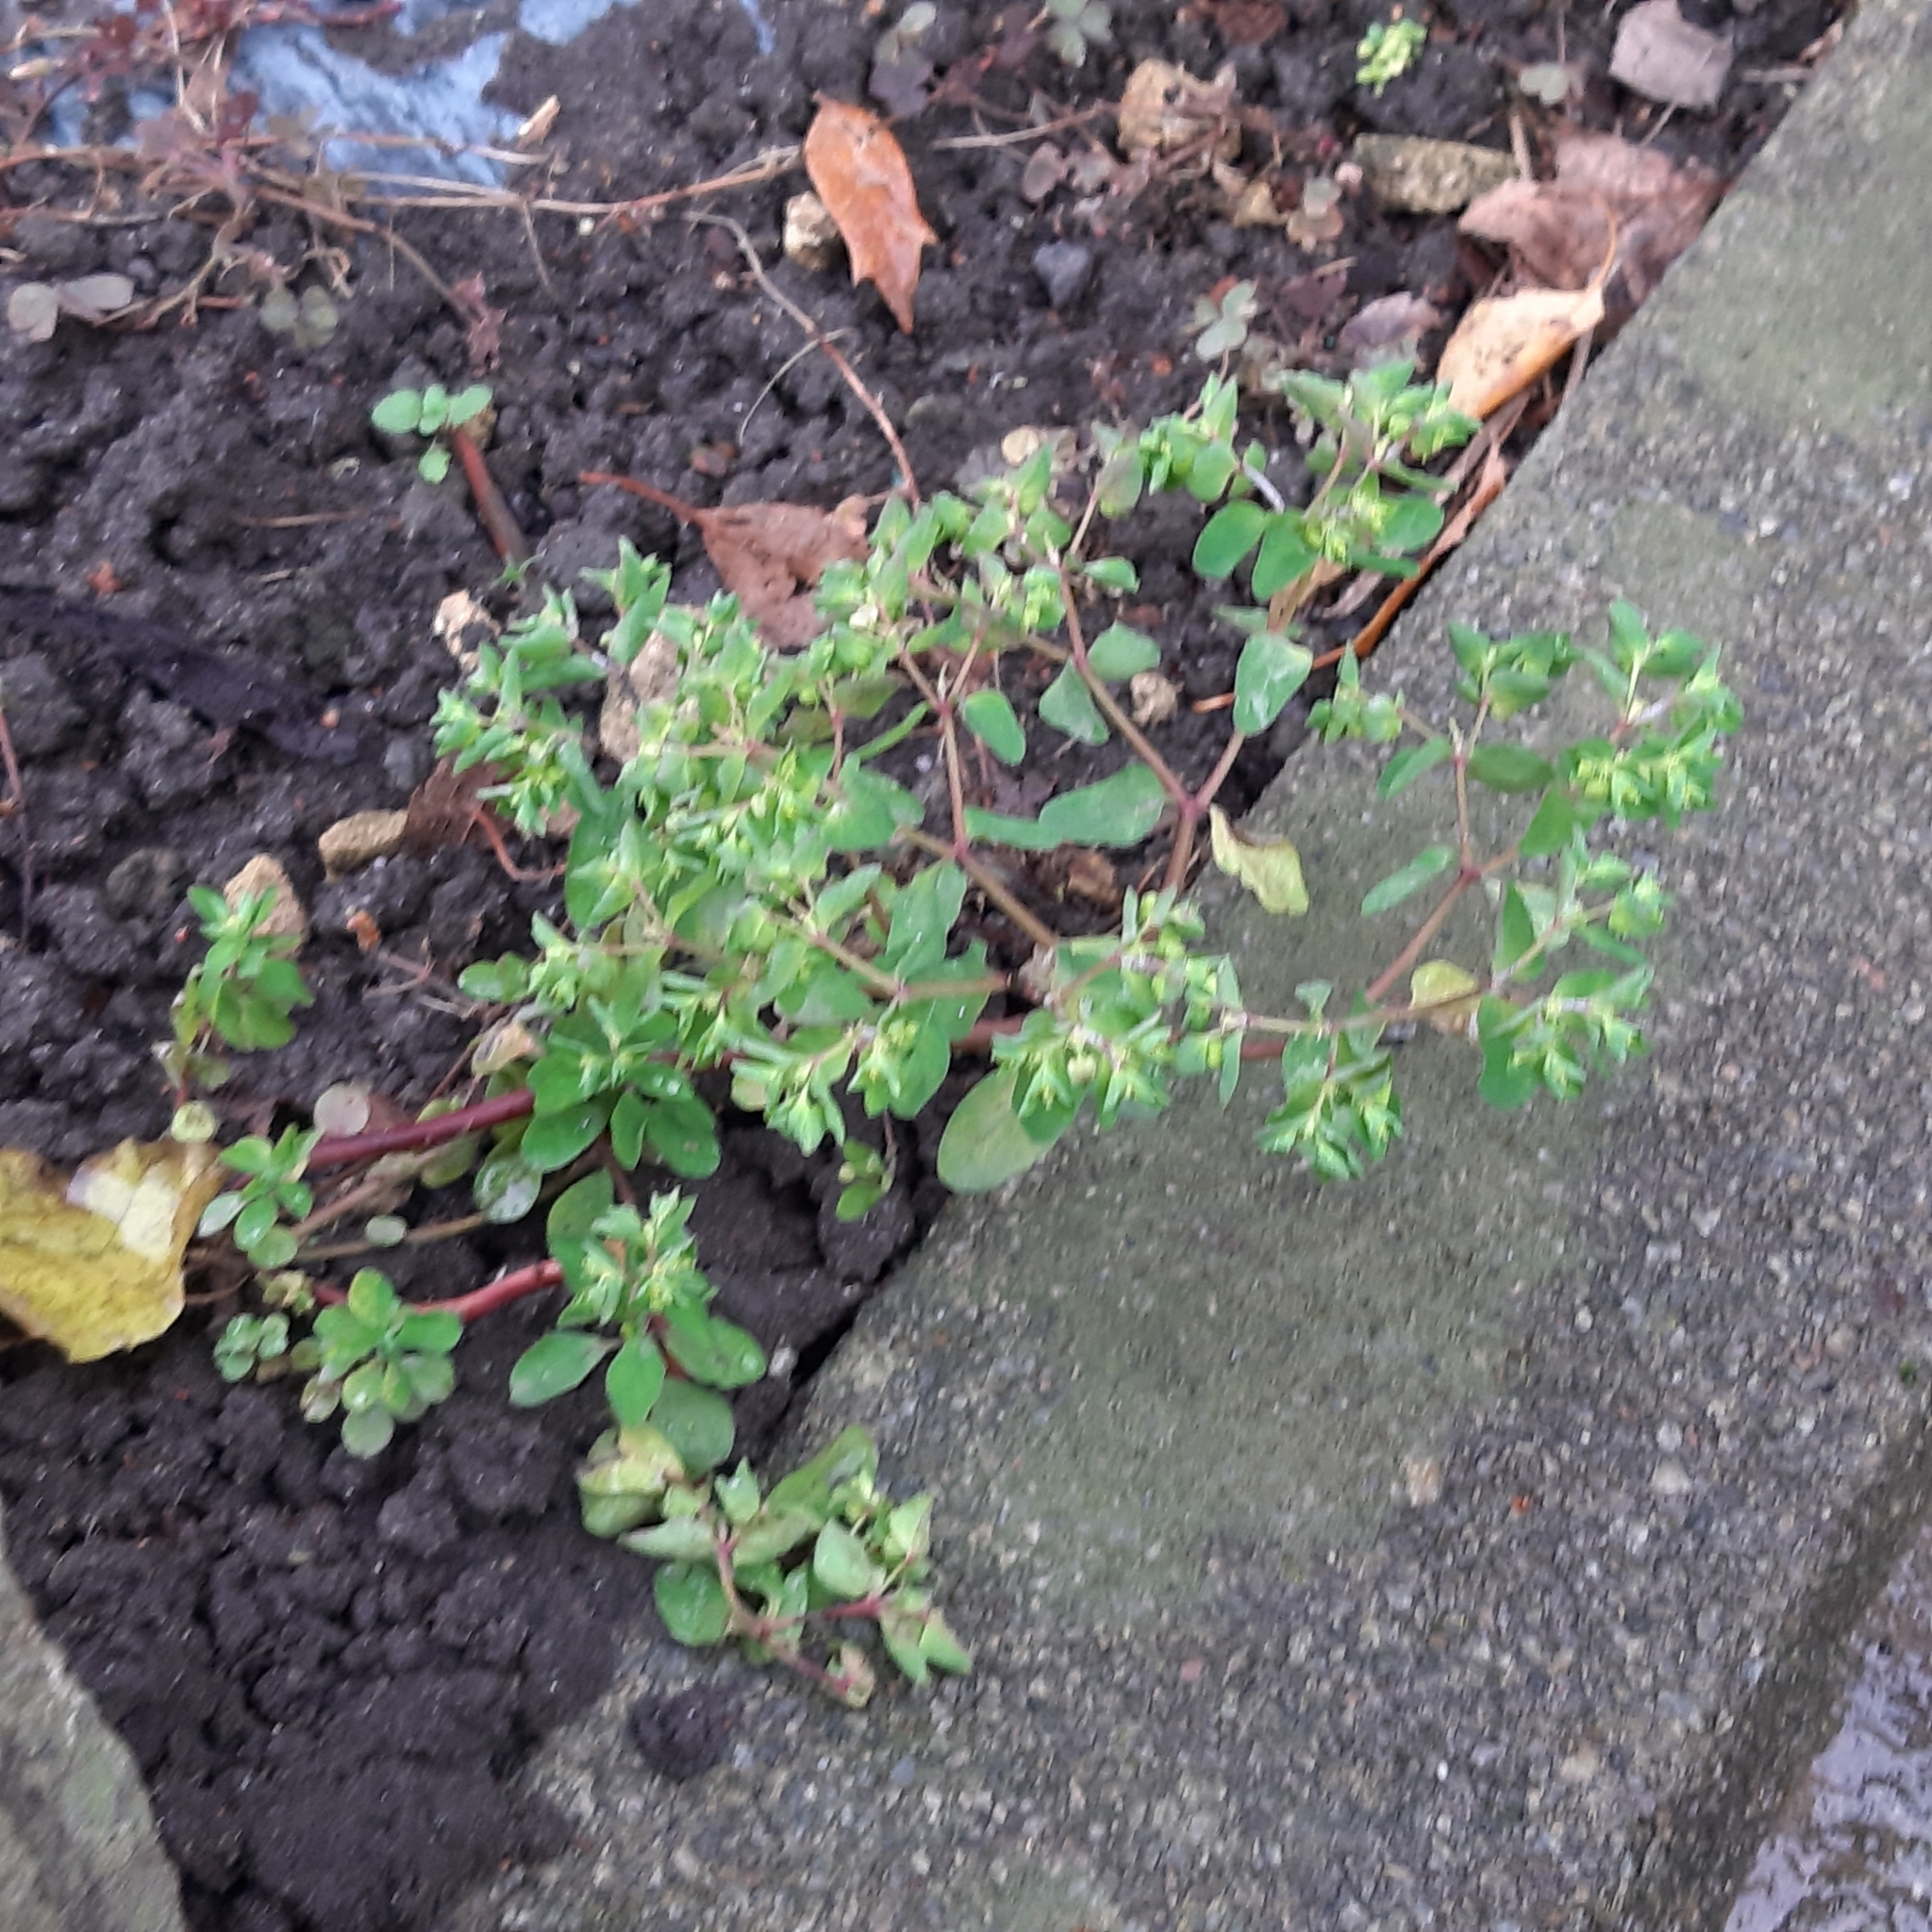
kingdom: Plantae
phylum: Tracheophyta
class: Magnoliopsida
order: Malpighiales
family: Euphorbiaceae
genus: Euphorbia
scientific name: Euphorbia peplus
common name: Petty spurge
